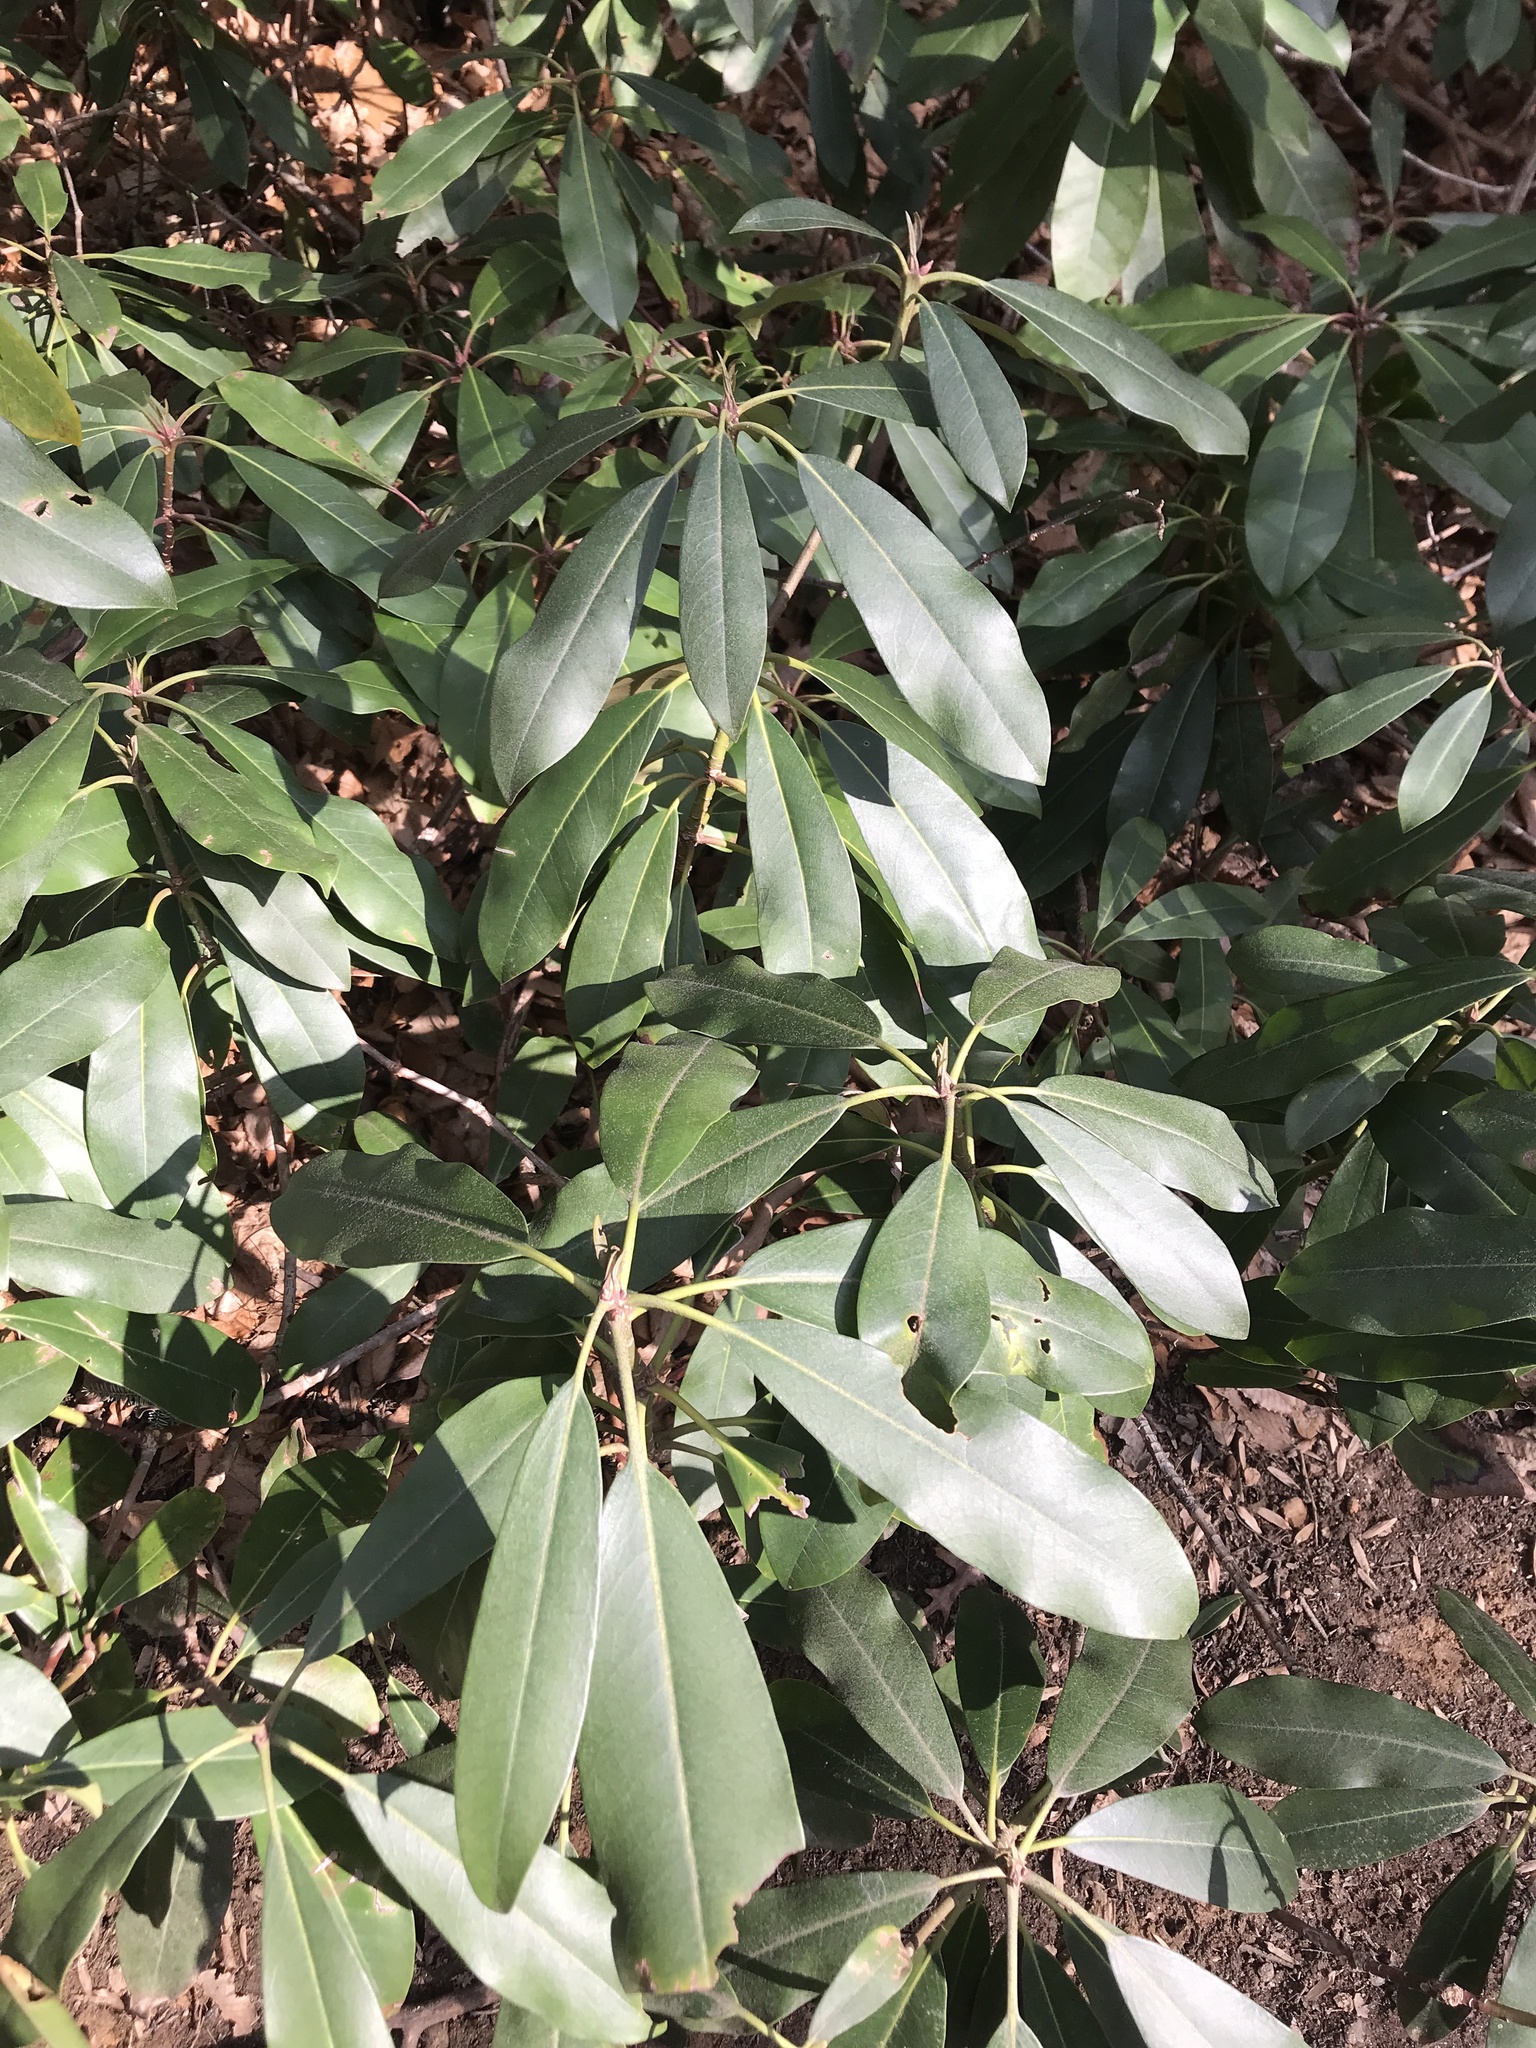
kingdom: Plantae
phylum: Tracheophyta
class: Magnoliopsida
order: Ericales
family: Ericaceae
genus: Rhododendron
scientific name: Rhododendron maximum
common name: Great rhododendron
